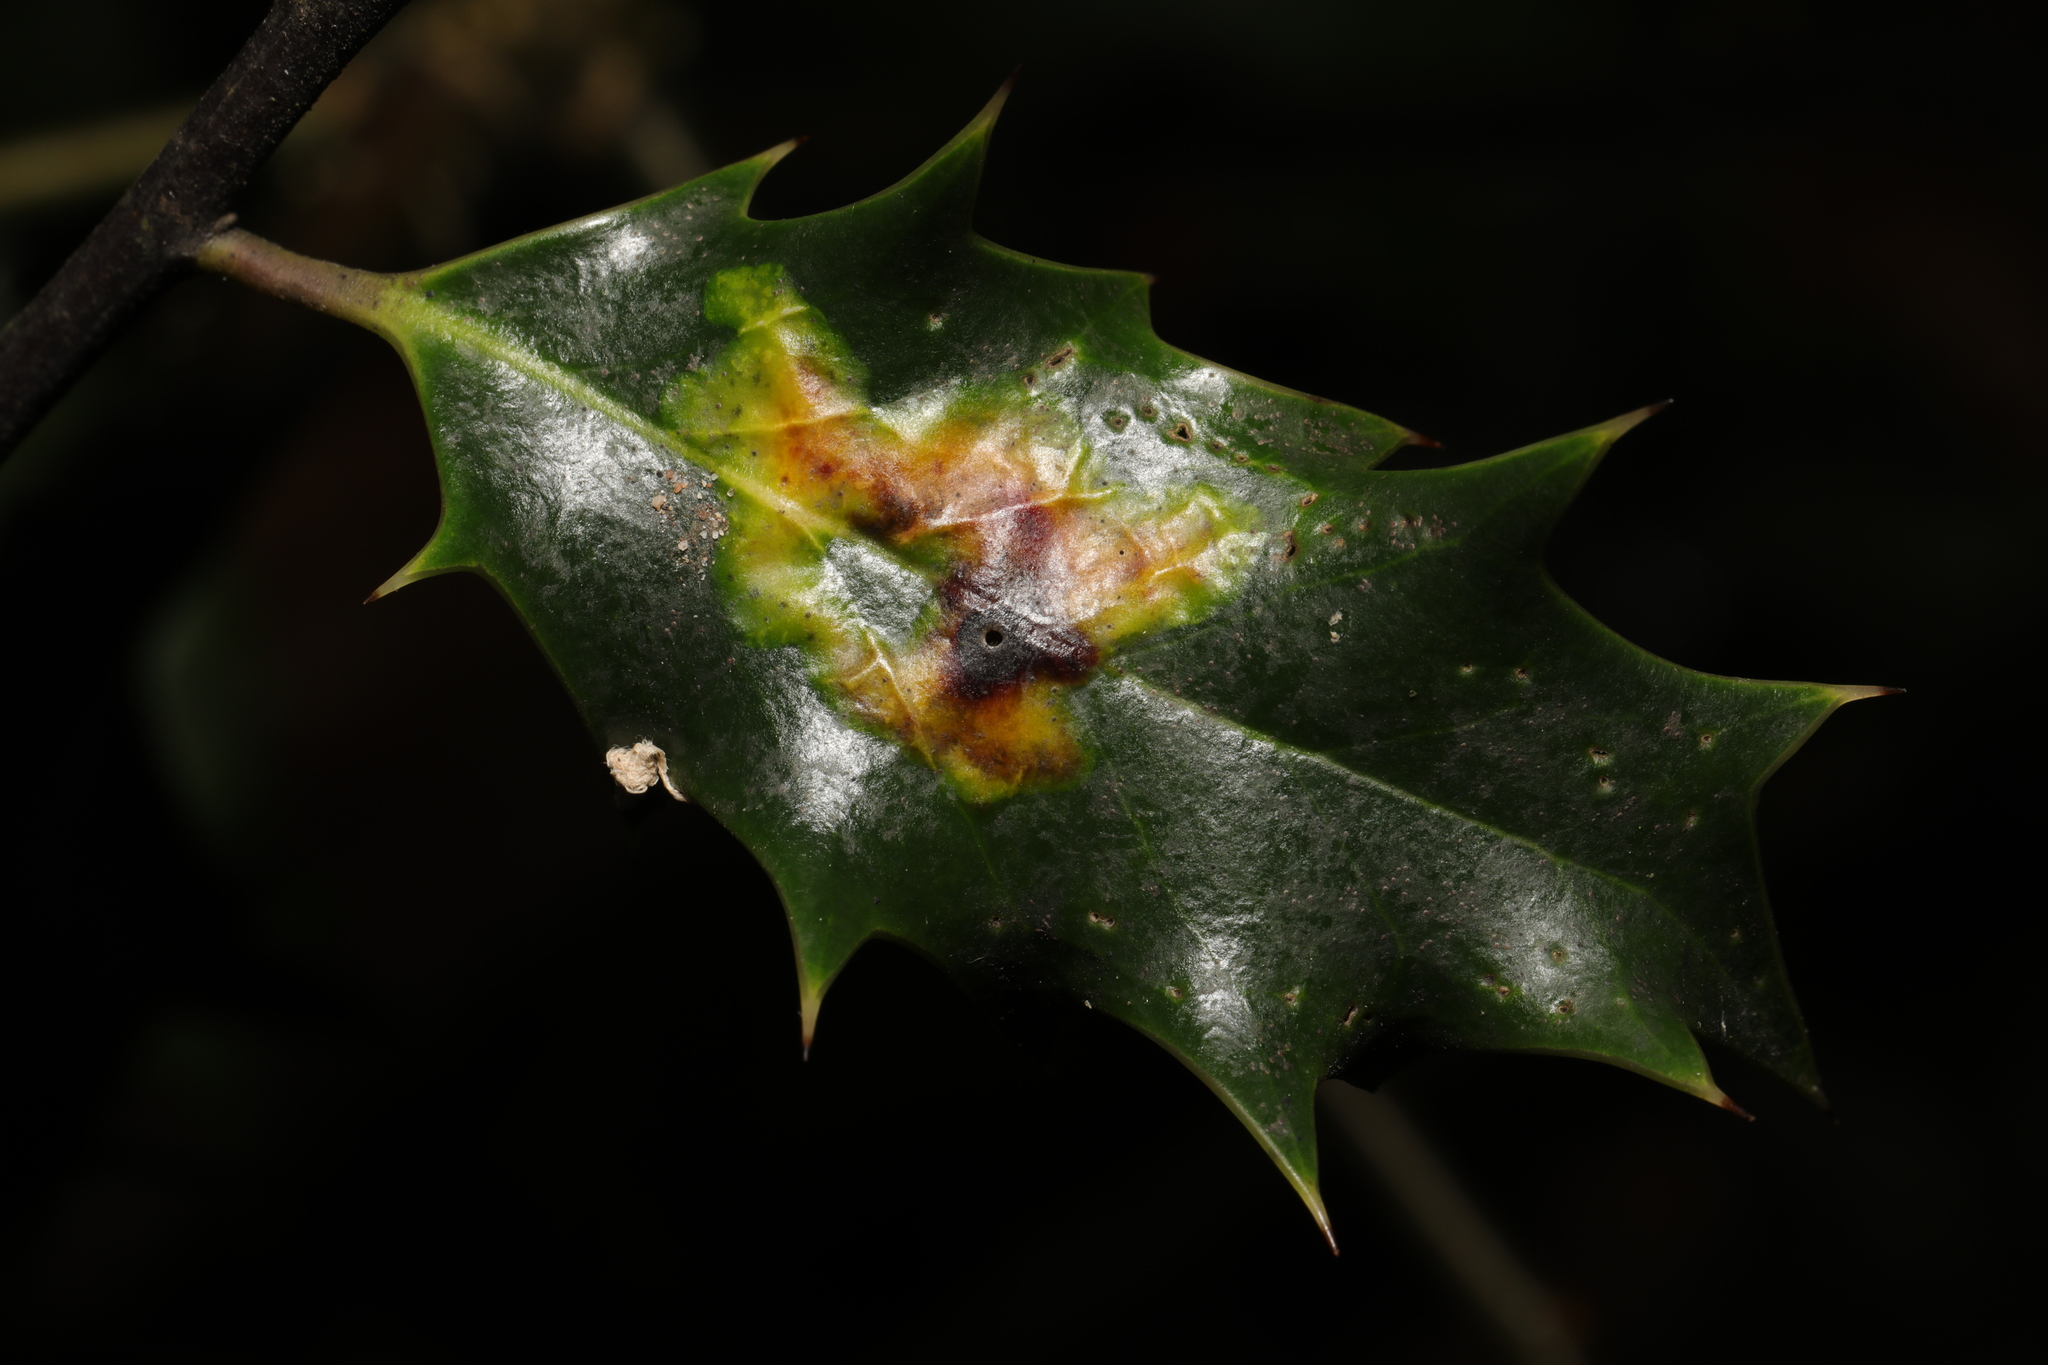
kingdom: Animalia
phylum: Arthropoda
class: Insecta
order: Diptera
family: Agromyzidae
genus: Phytomyza
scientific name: Phytomyza ilicis
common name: Holly leafminer
